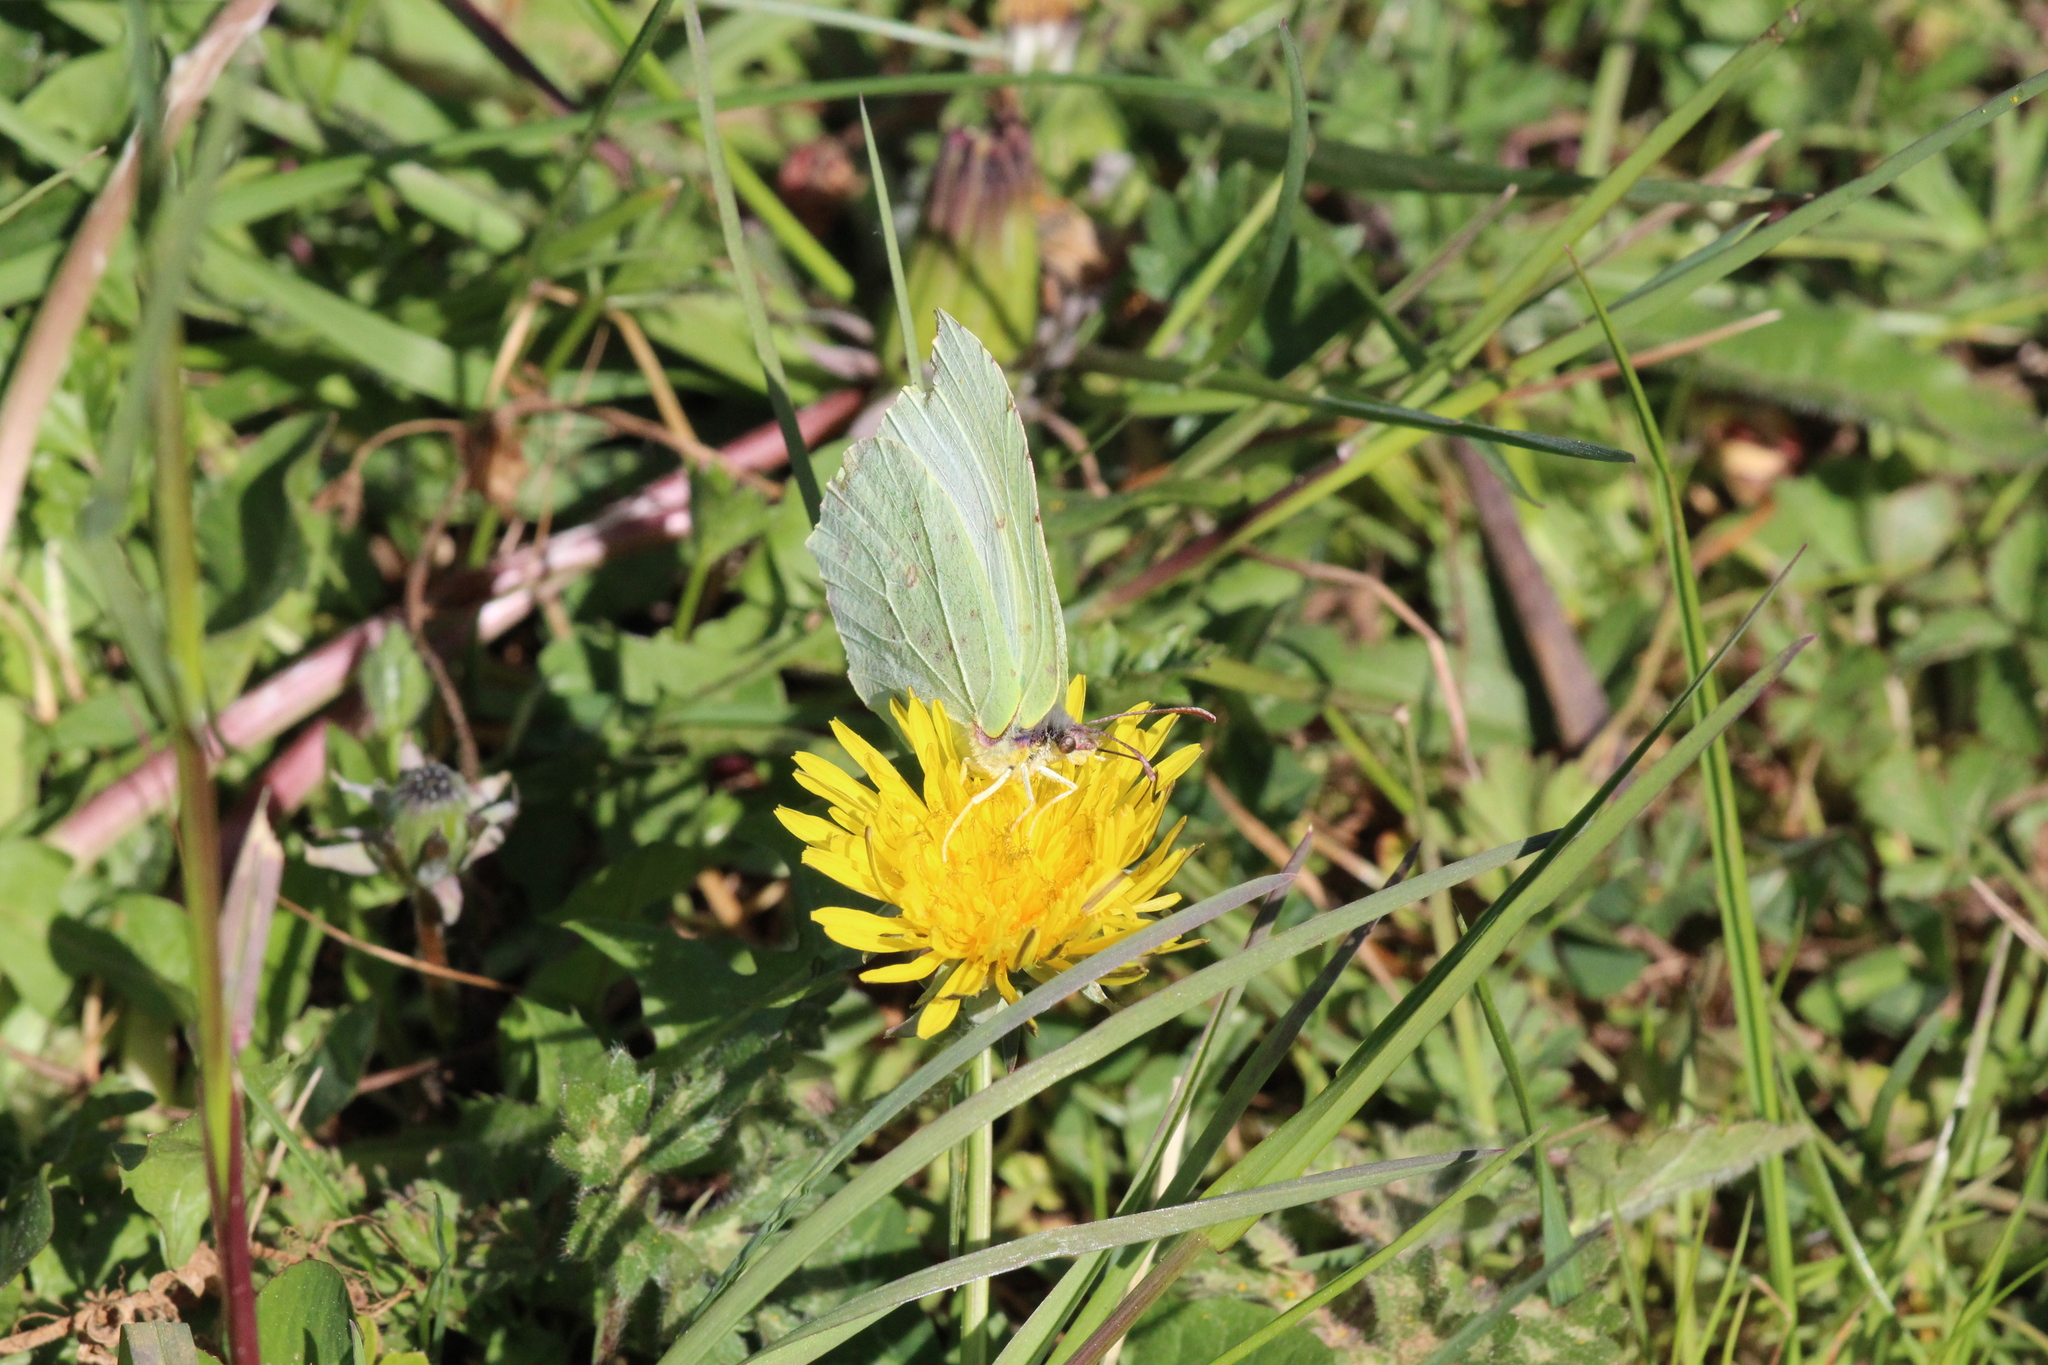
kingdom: Animalia
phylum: Arthropoda
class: Insecta
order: Lepidoptera
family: Pieridae
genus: Gonepteryx
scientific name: Gonepteryx rhamni
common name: Brimstone
